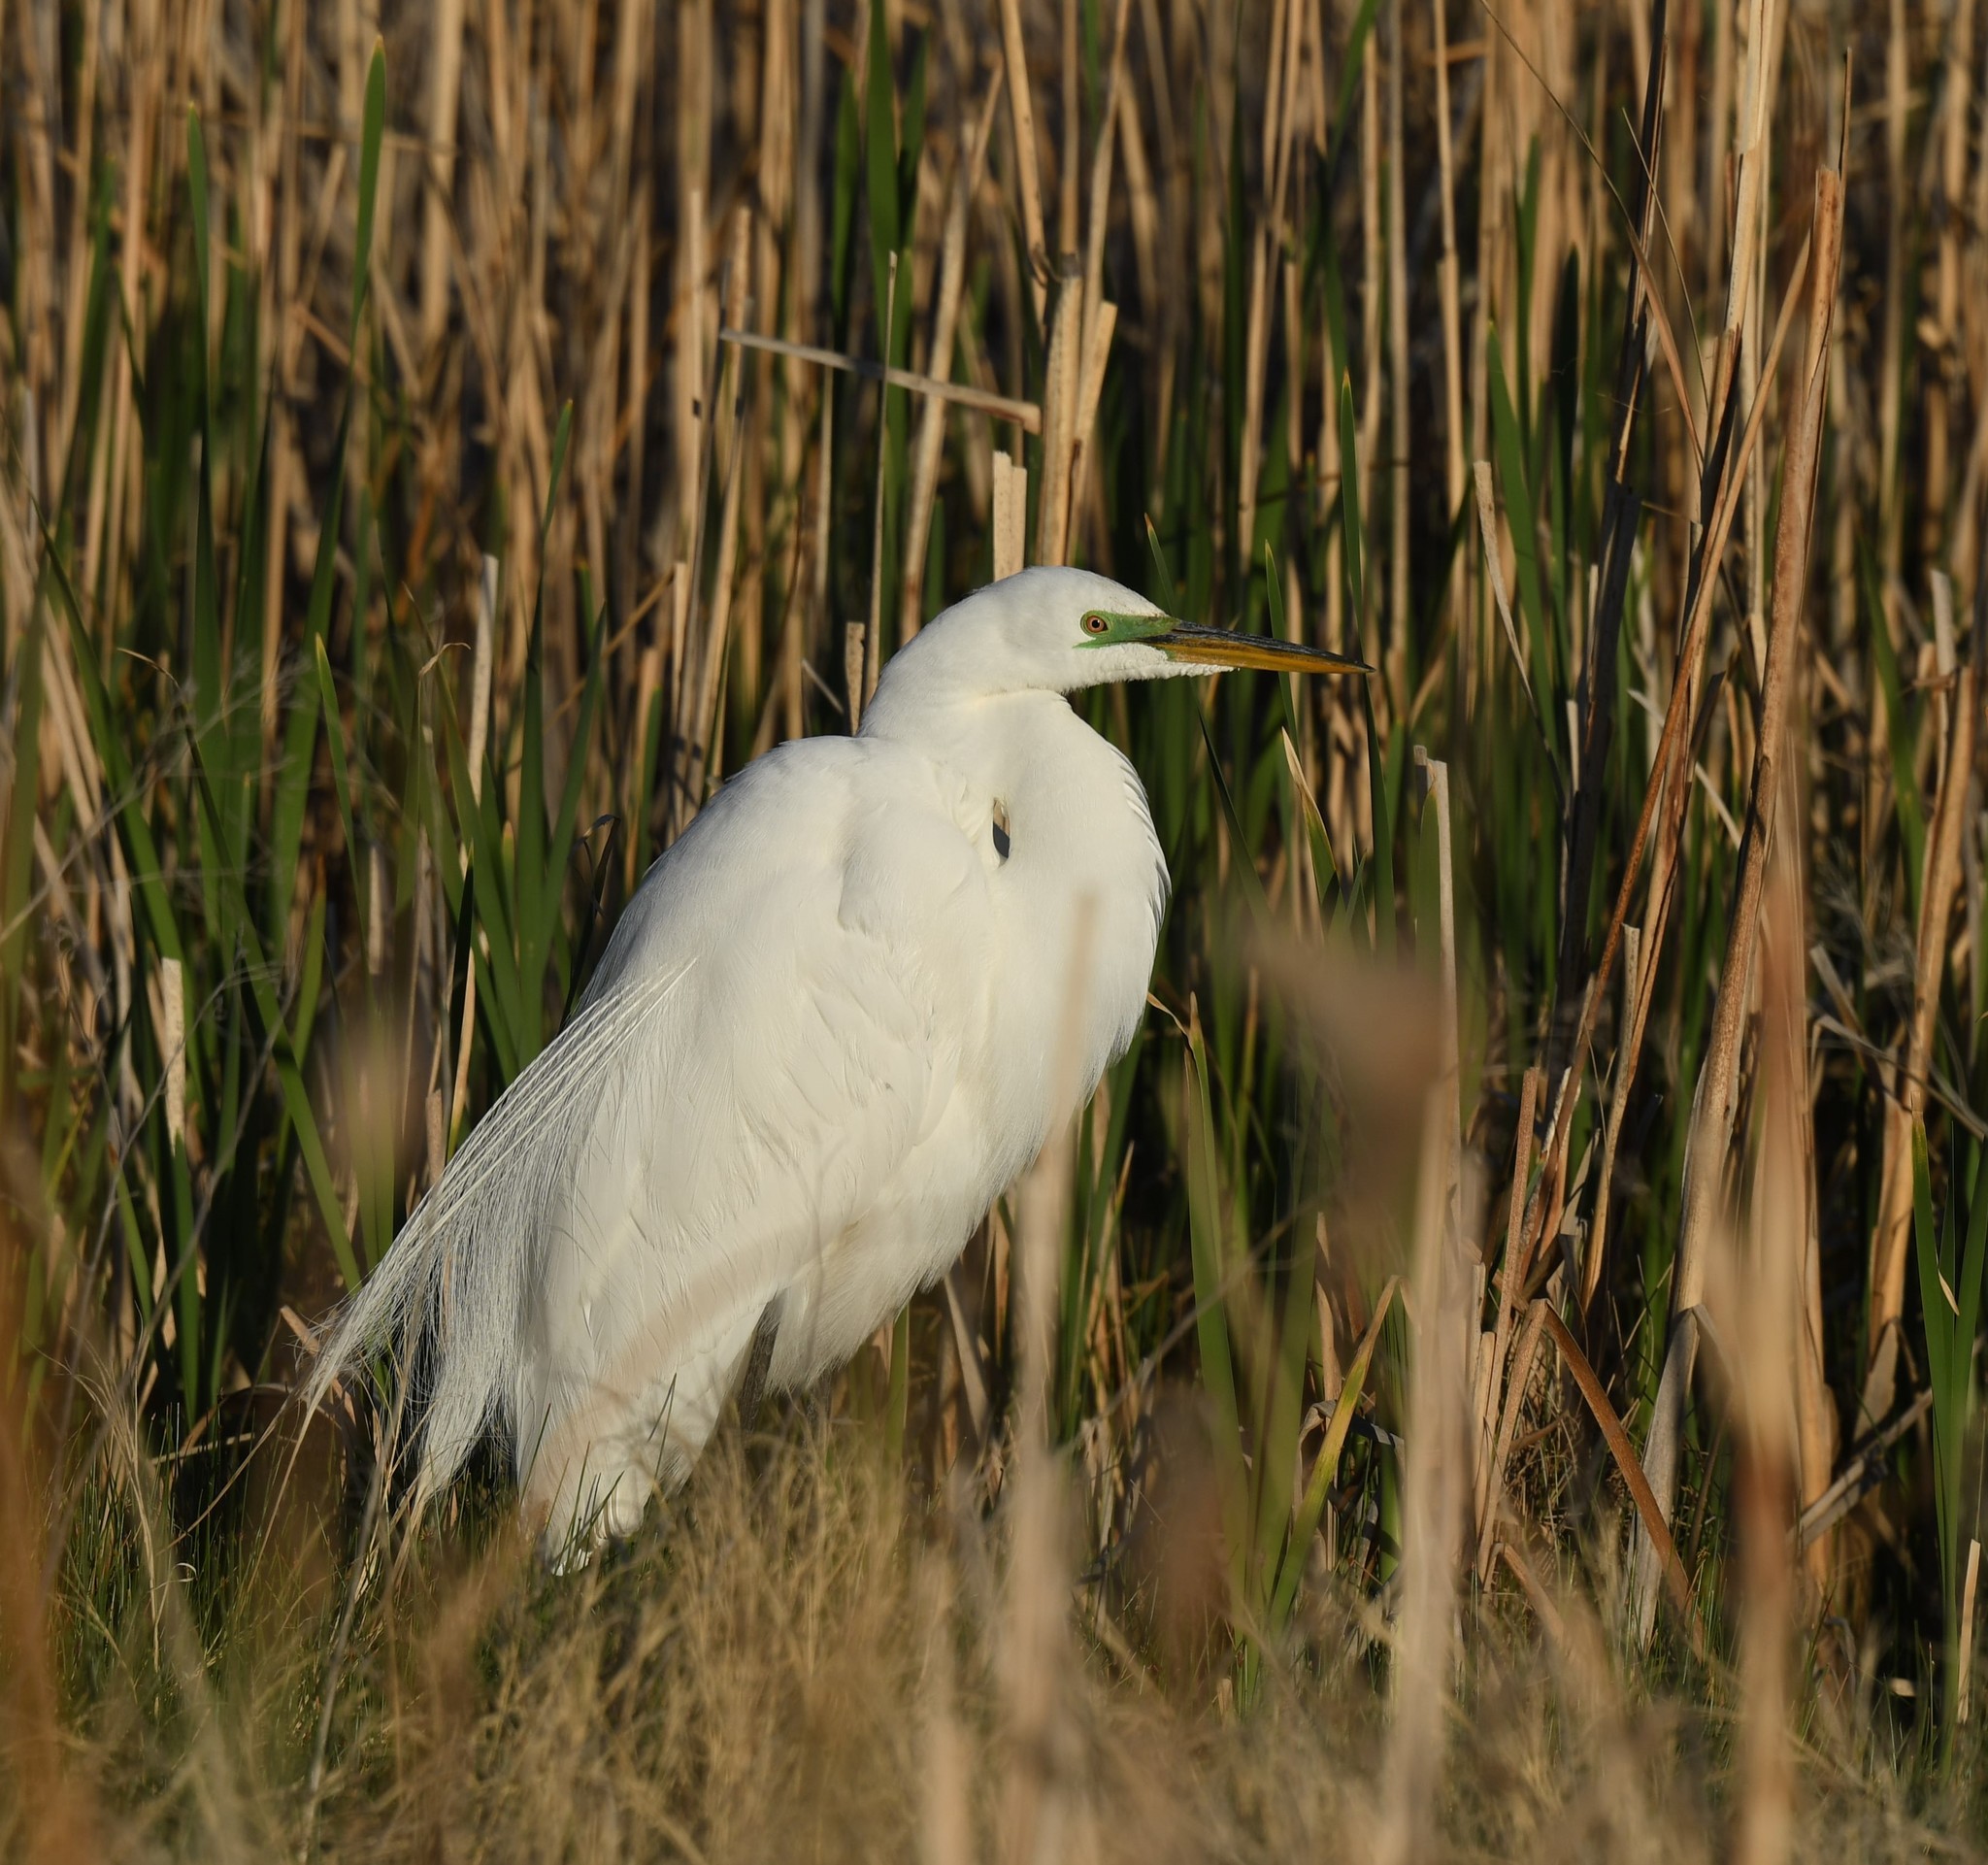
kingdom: Animalia
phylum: Chordata
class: Aves
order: Pelecaniformes
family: Ardeidae
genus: Ardea
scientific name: Ardea alba
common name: Great egret
